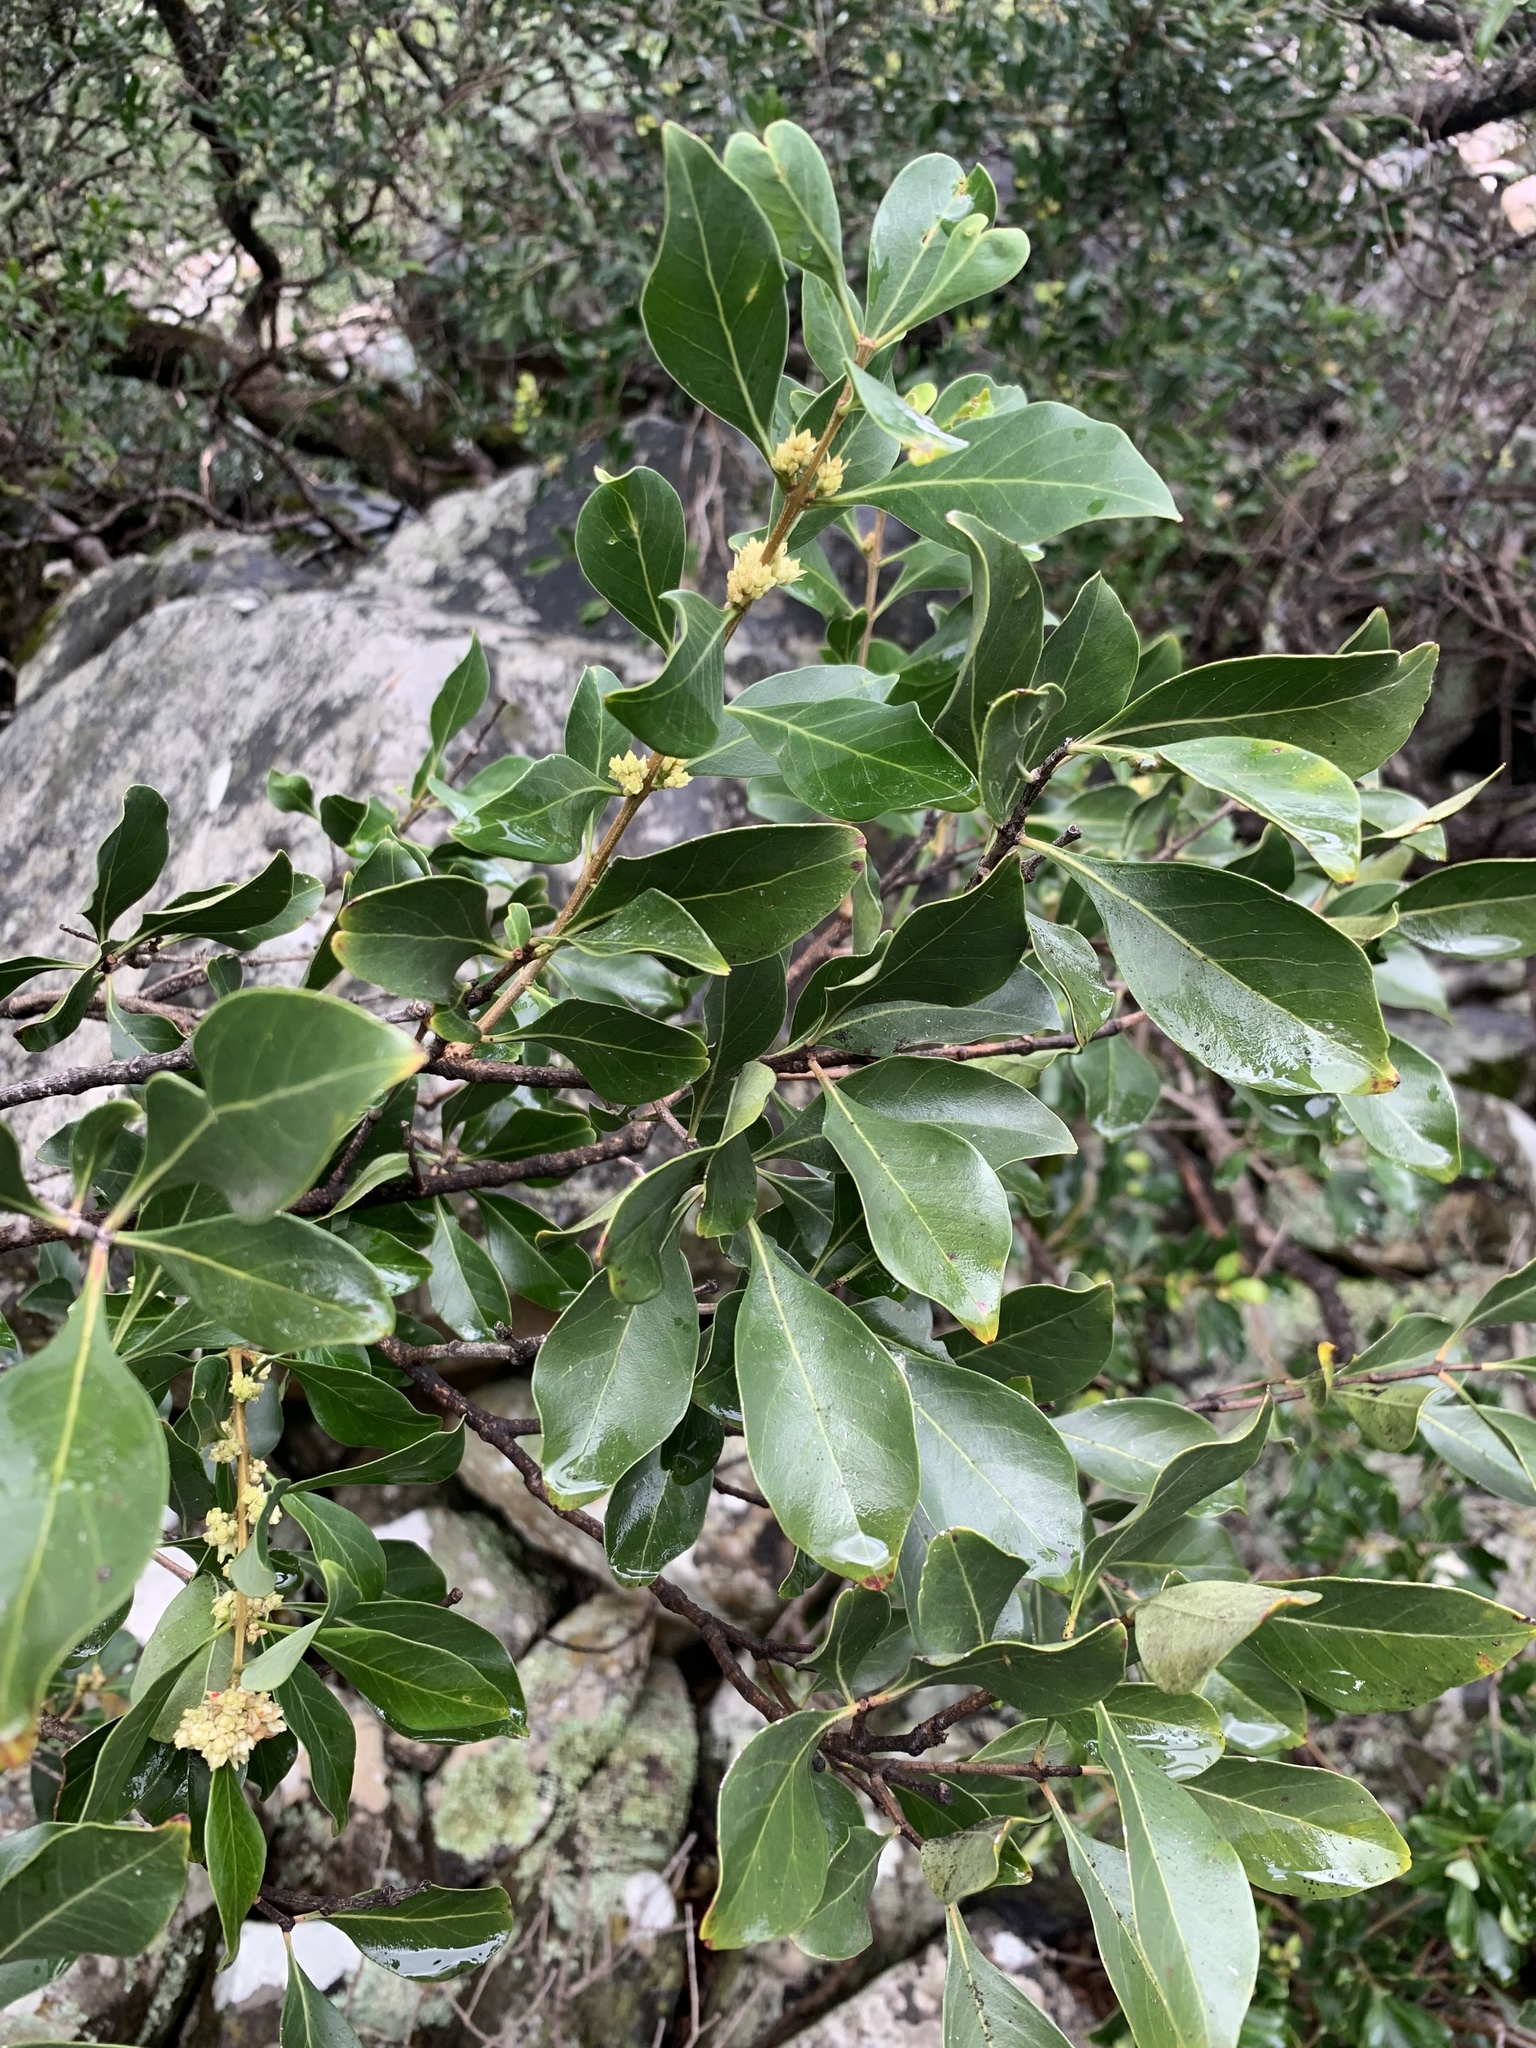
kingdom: Plantae
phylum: Tracheophyta
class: Magnoliopsida
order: Myrtales
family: Penaeaceae
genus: Olinia
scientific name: Olinia ventosa
